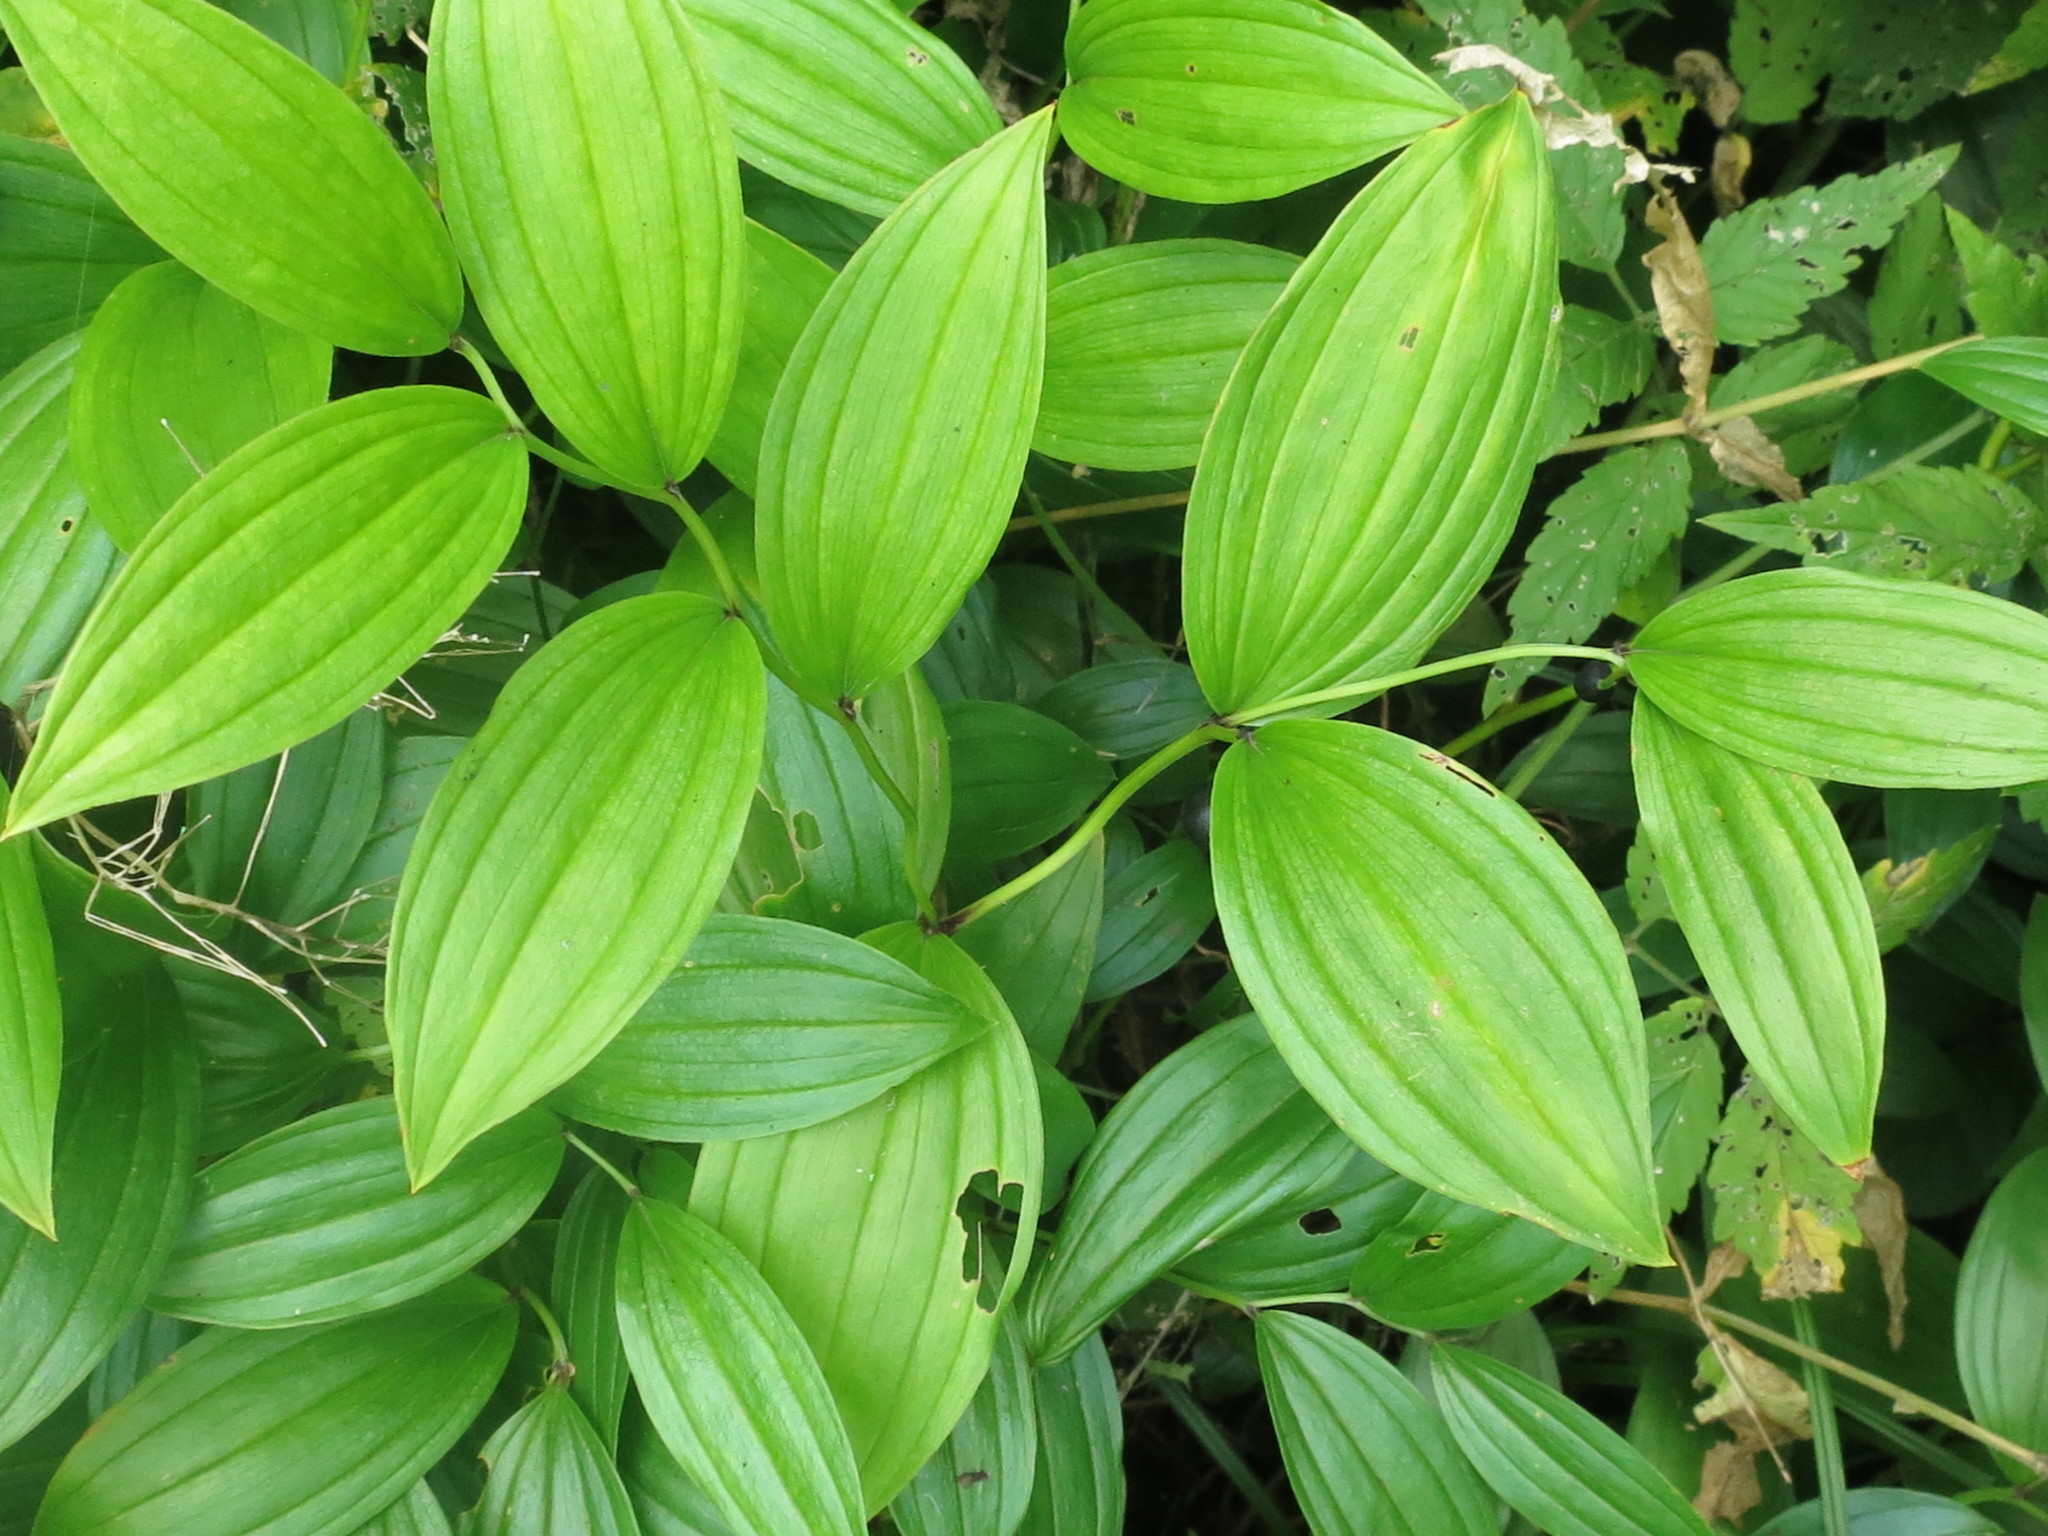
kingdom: Plantae
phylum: Tracheophyta
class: Liliopsida
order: Liliales
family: Colchicaceae
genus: Disporum
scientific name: Disporum viridescens
